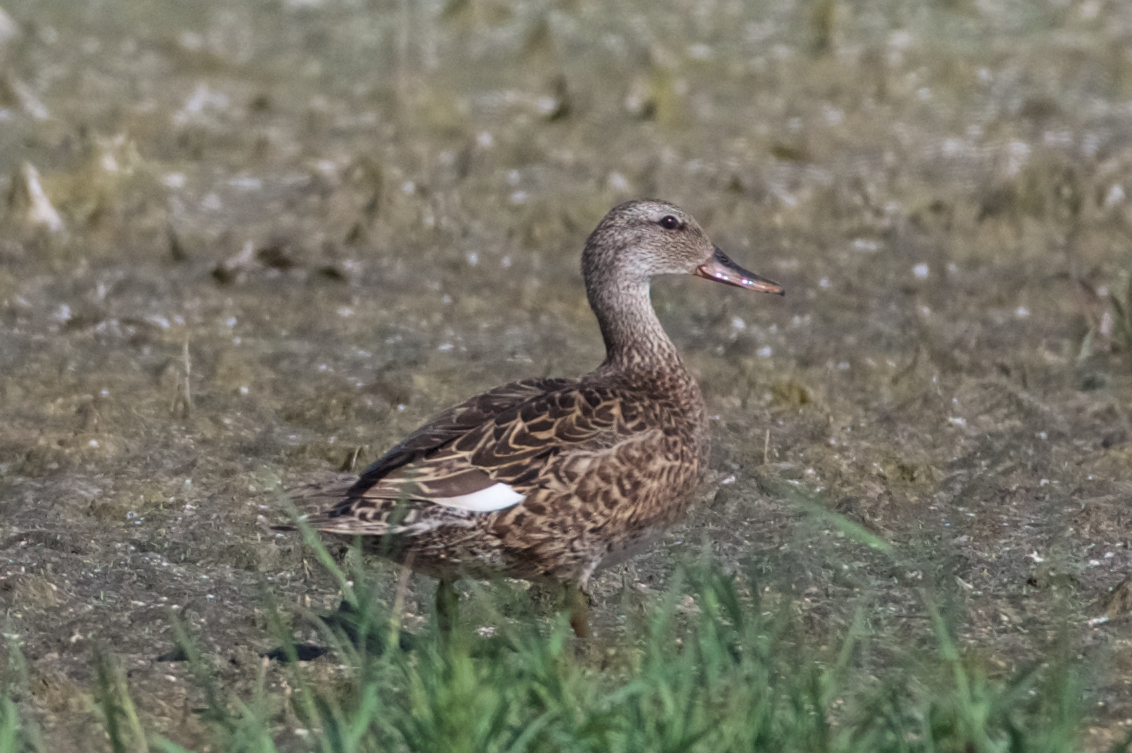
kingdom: Animalia
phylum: Chordata
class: Aves
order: Anseriformes
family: Anatidae
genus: Mareca
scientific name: Mareca strepera
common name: Gadwall
